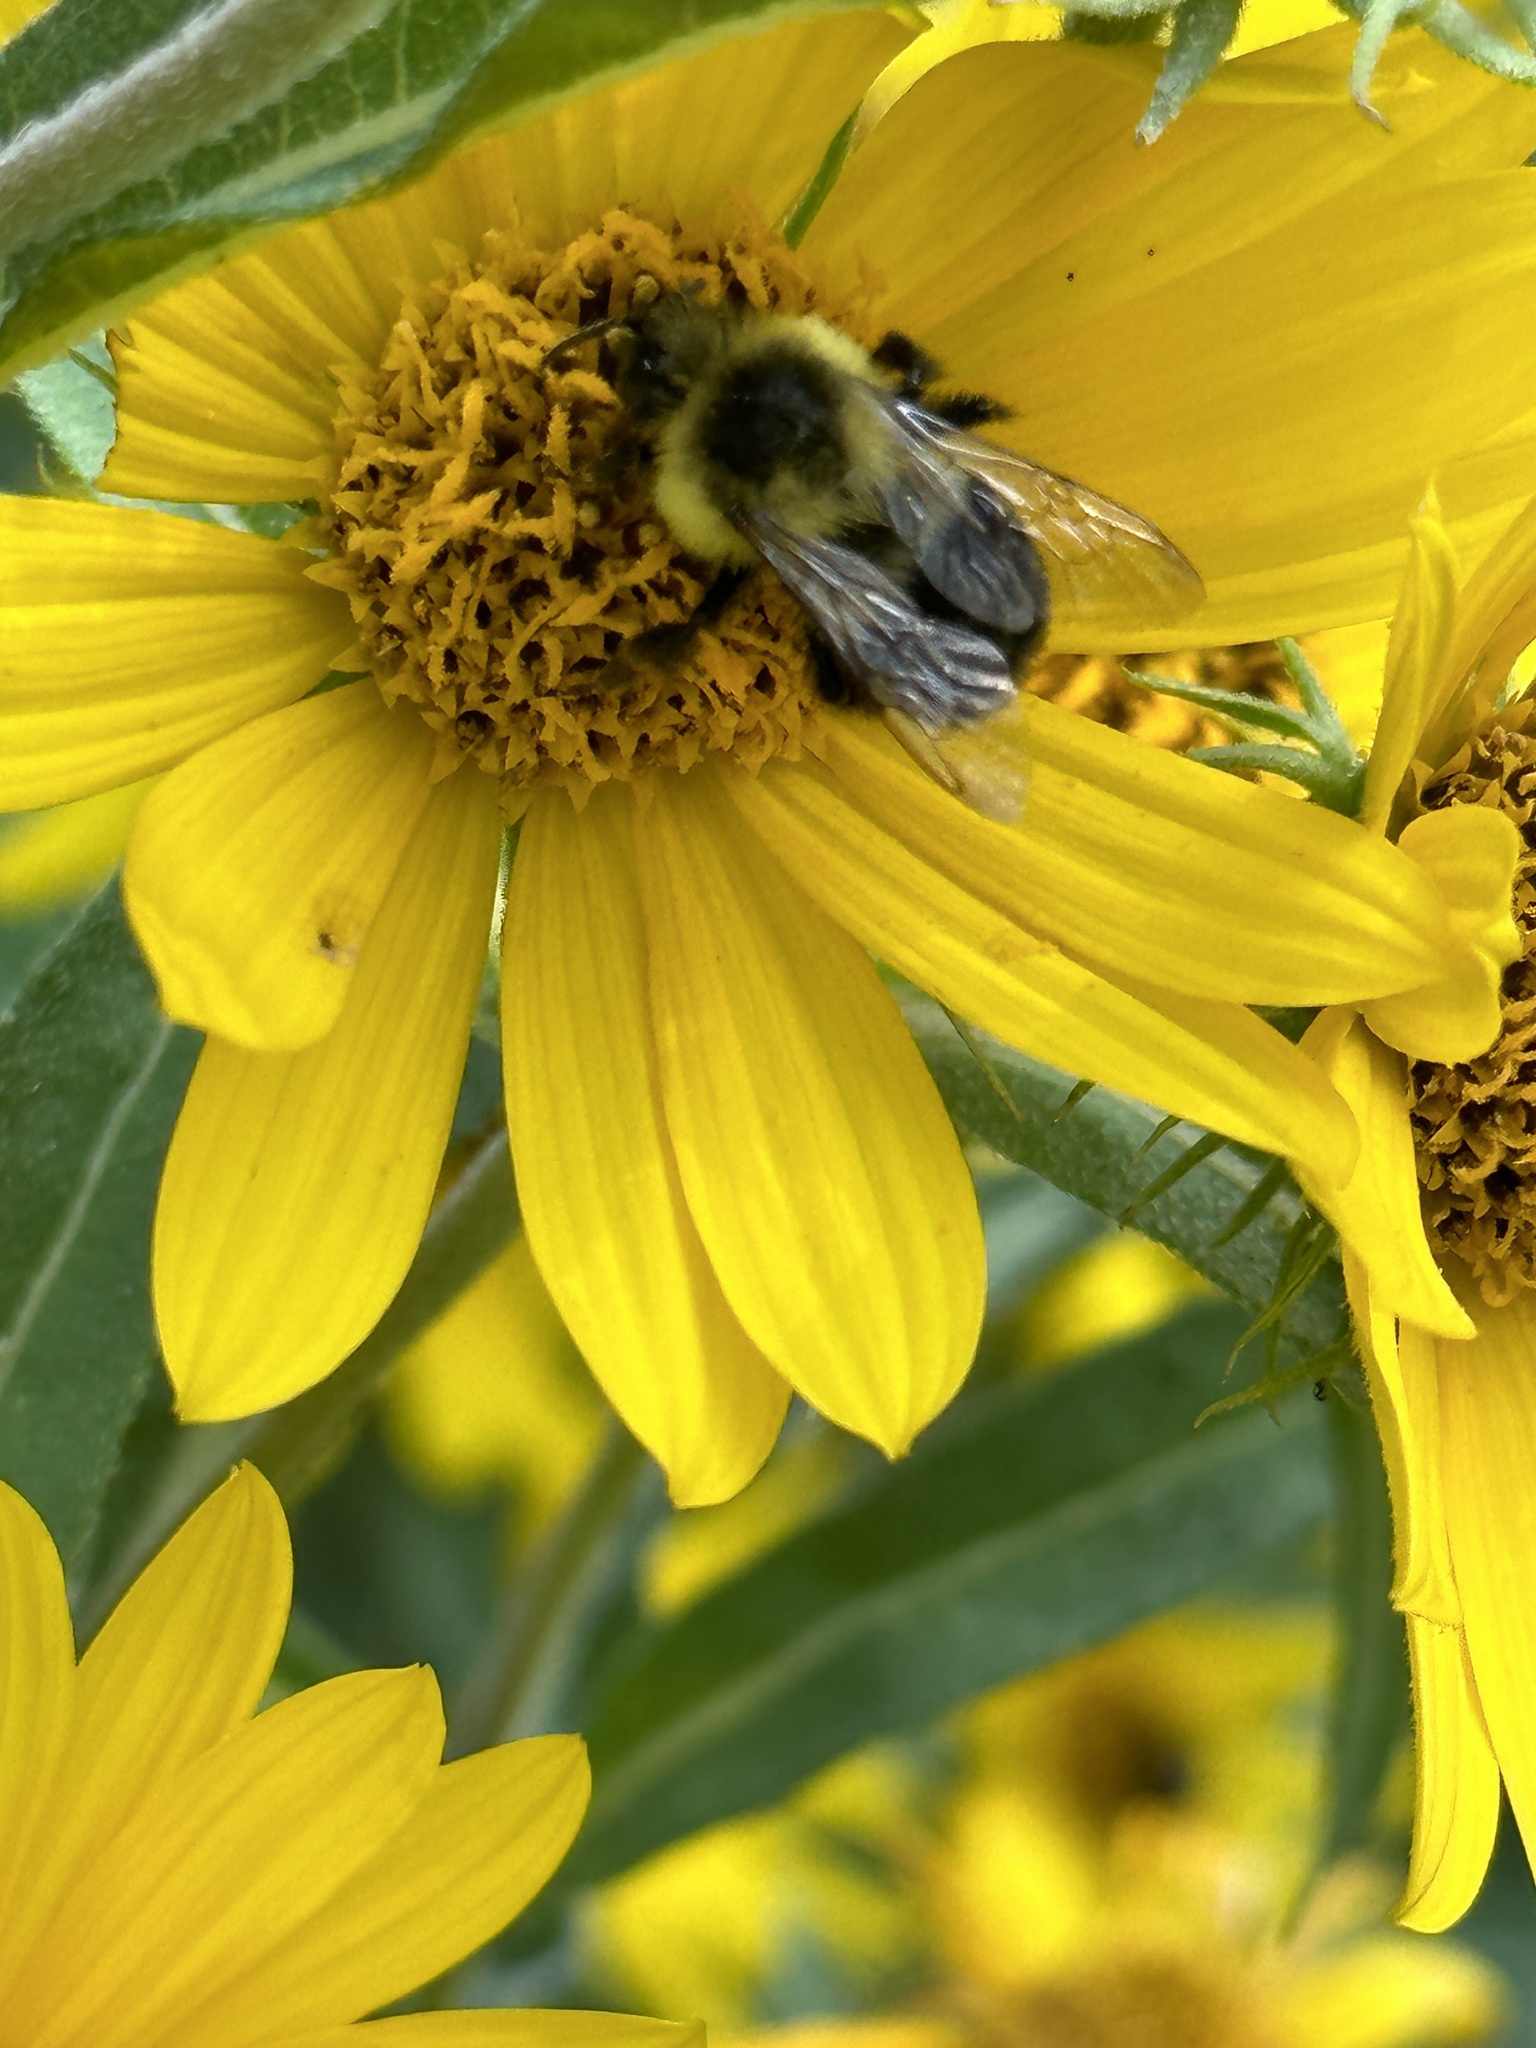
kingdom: Animalia
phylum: Arthropoda
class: Insecta
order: Hymenoptera
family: Apidae
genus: Bombus
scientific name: Bombus impatiens
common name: Common eastern bumble bee
